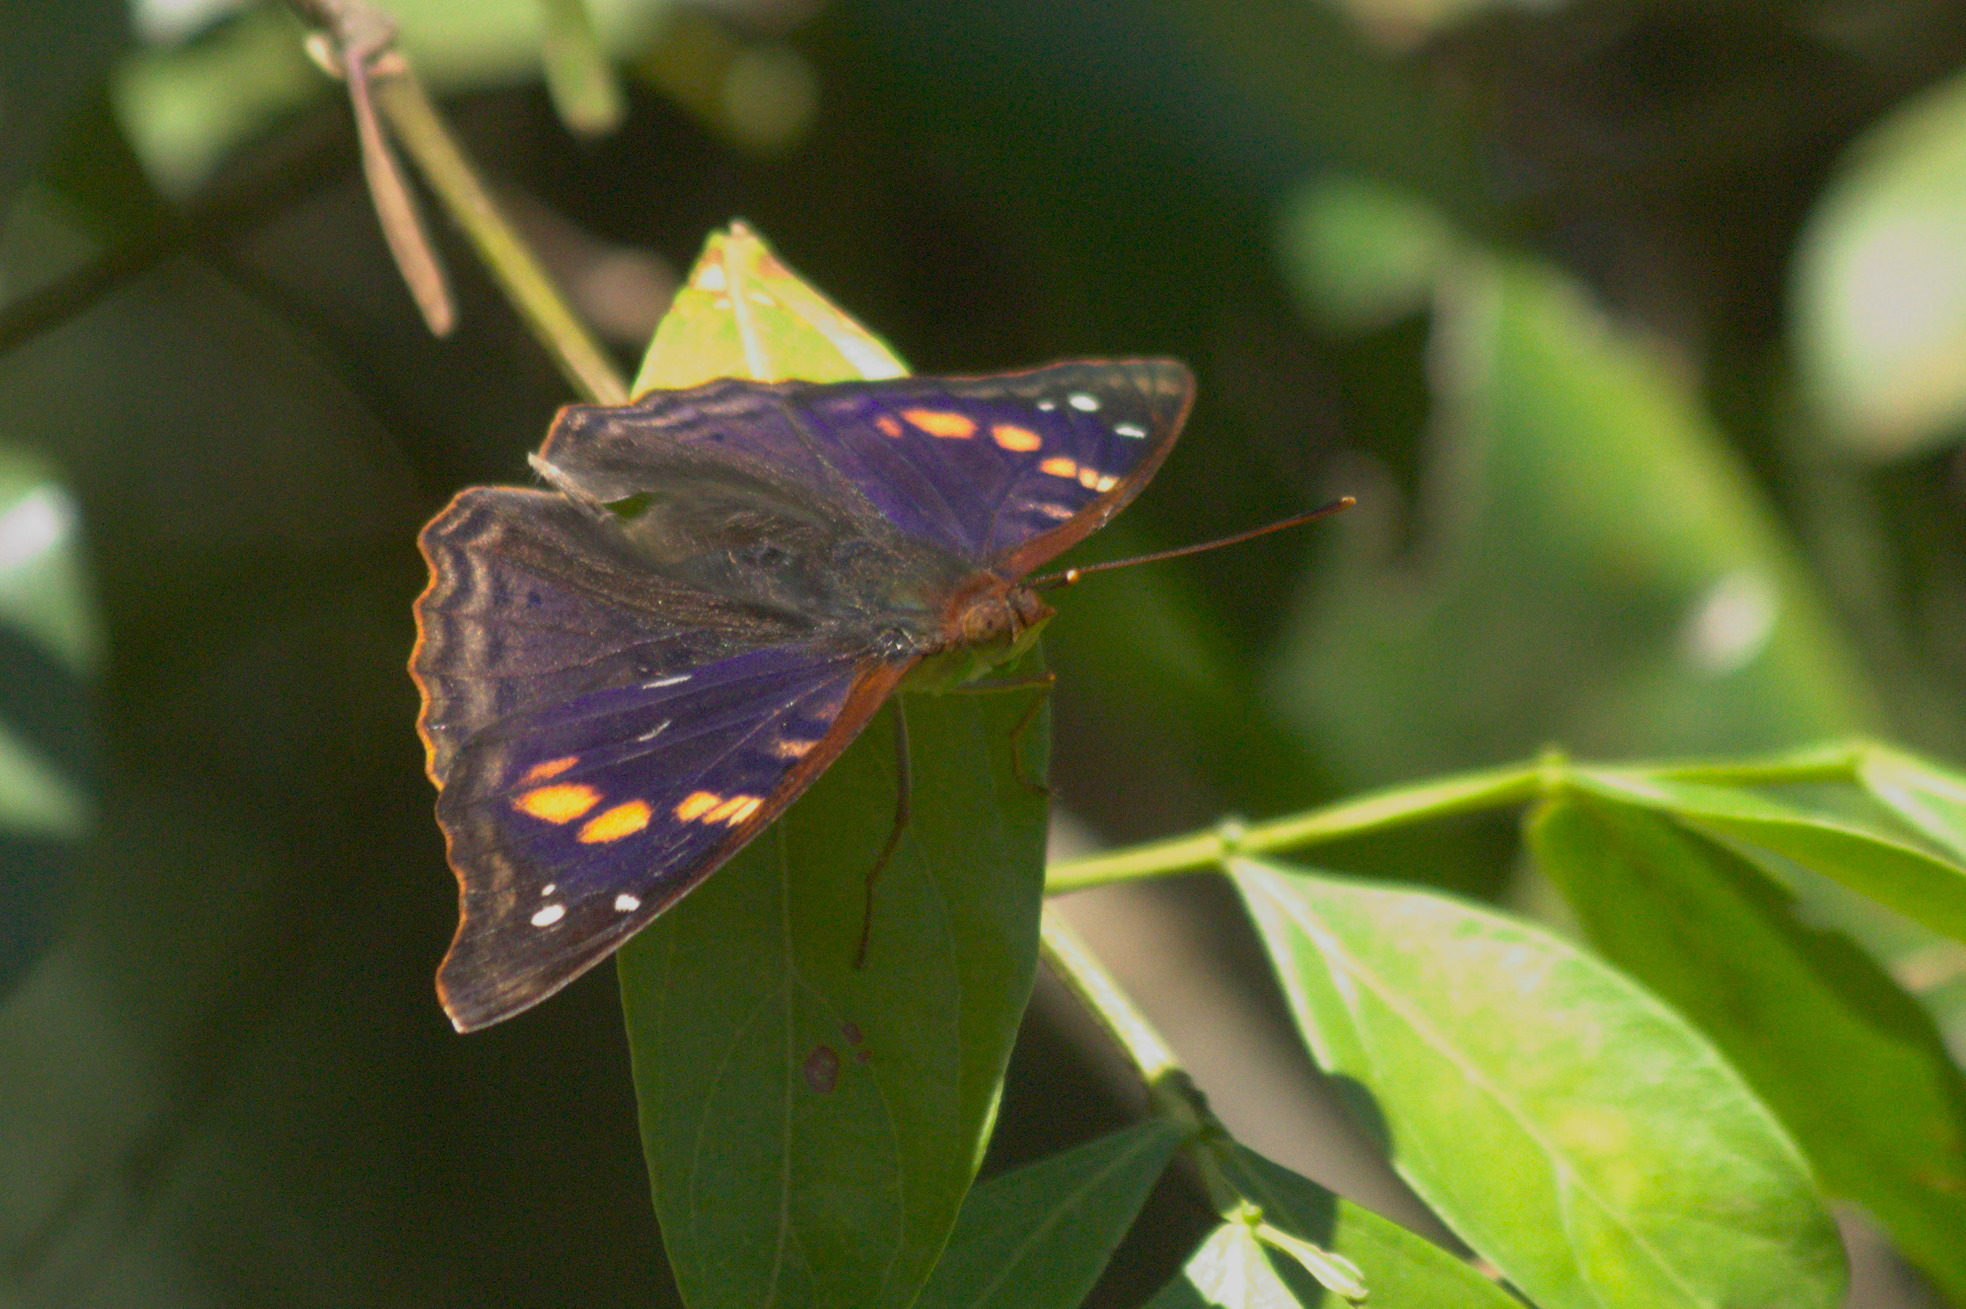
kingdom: Animalia
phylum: Arthropoda
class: Insecta
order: Lepidoptera
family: Nymphalidae
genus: Doxocopa
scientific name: Doxocopa agathina
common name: Agathina emperor
